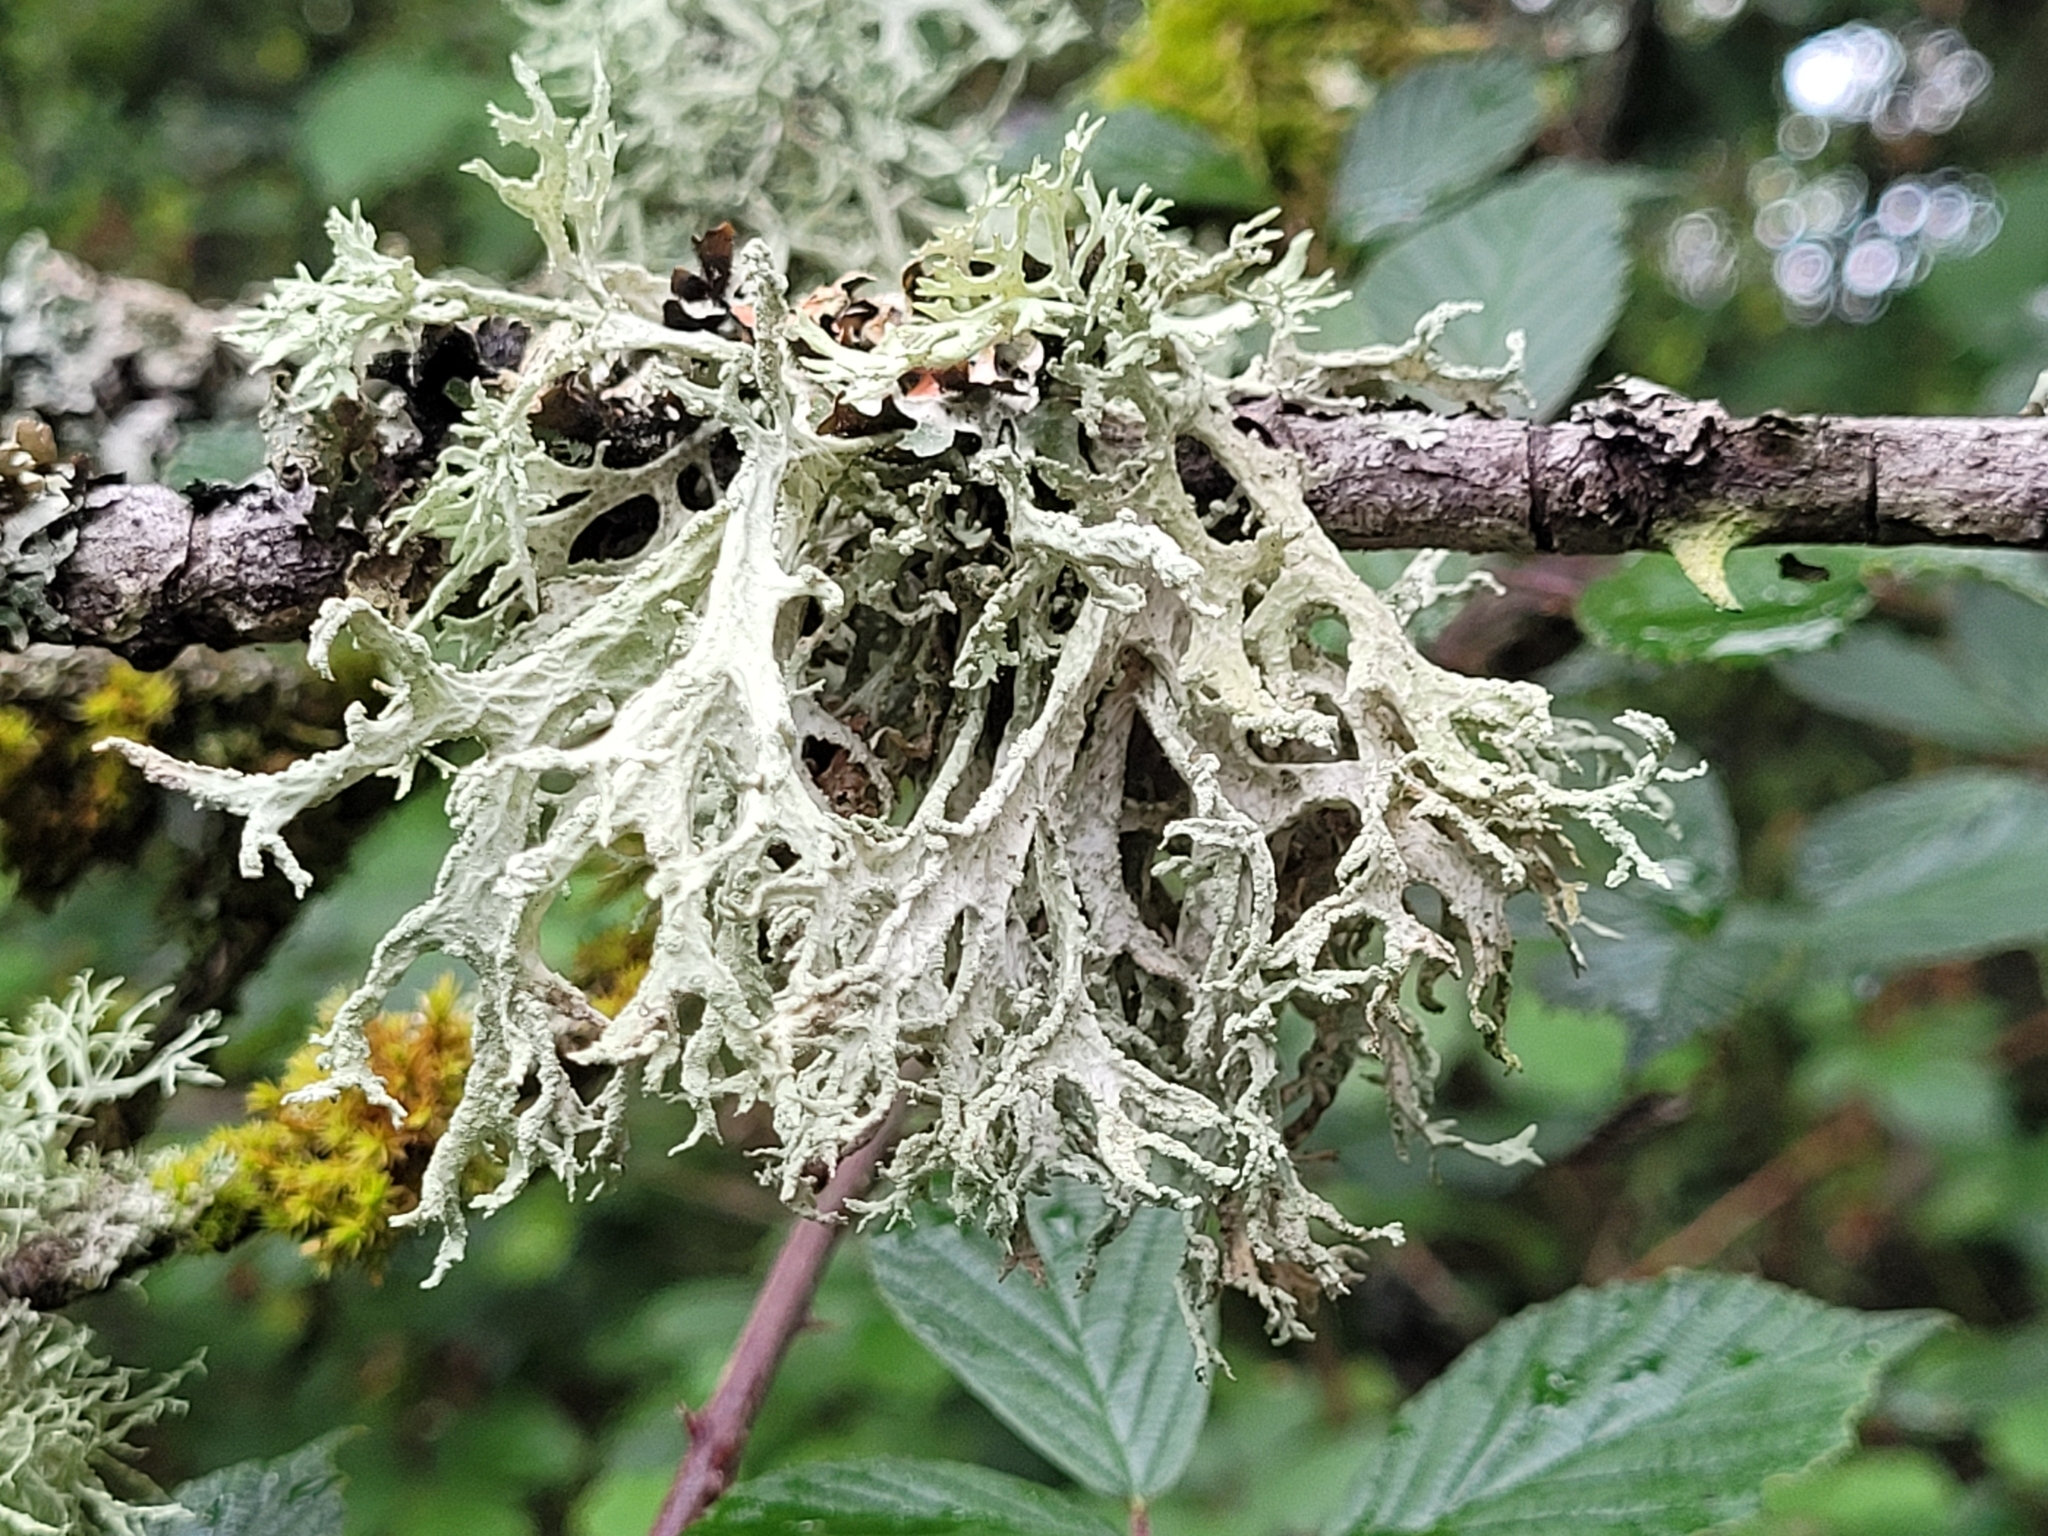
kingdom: Fungi
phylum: Ascomycota
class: Lecanoromycetes
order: Lecanorales
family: Parmeliaceae
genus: Evernia
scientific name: Evernia prunastri
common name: Oak moss
